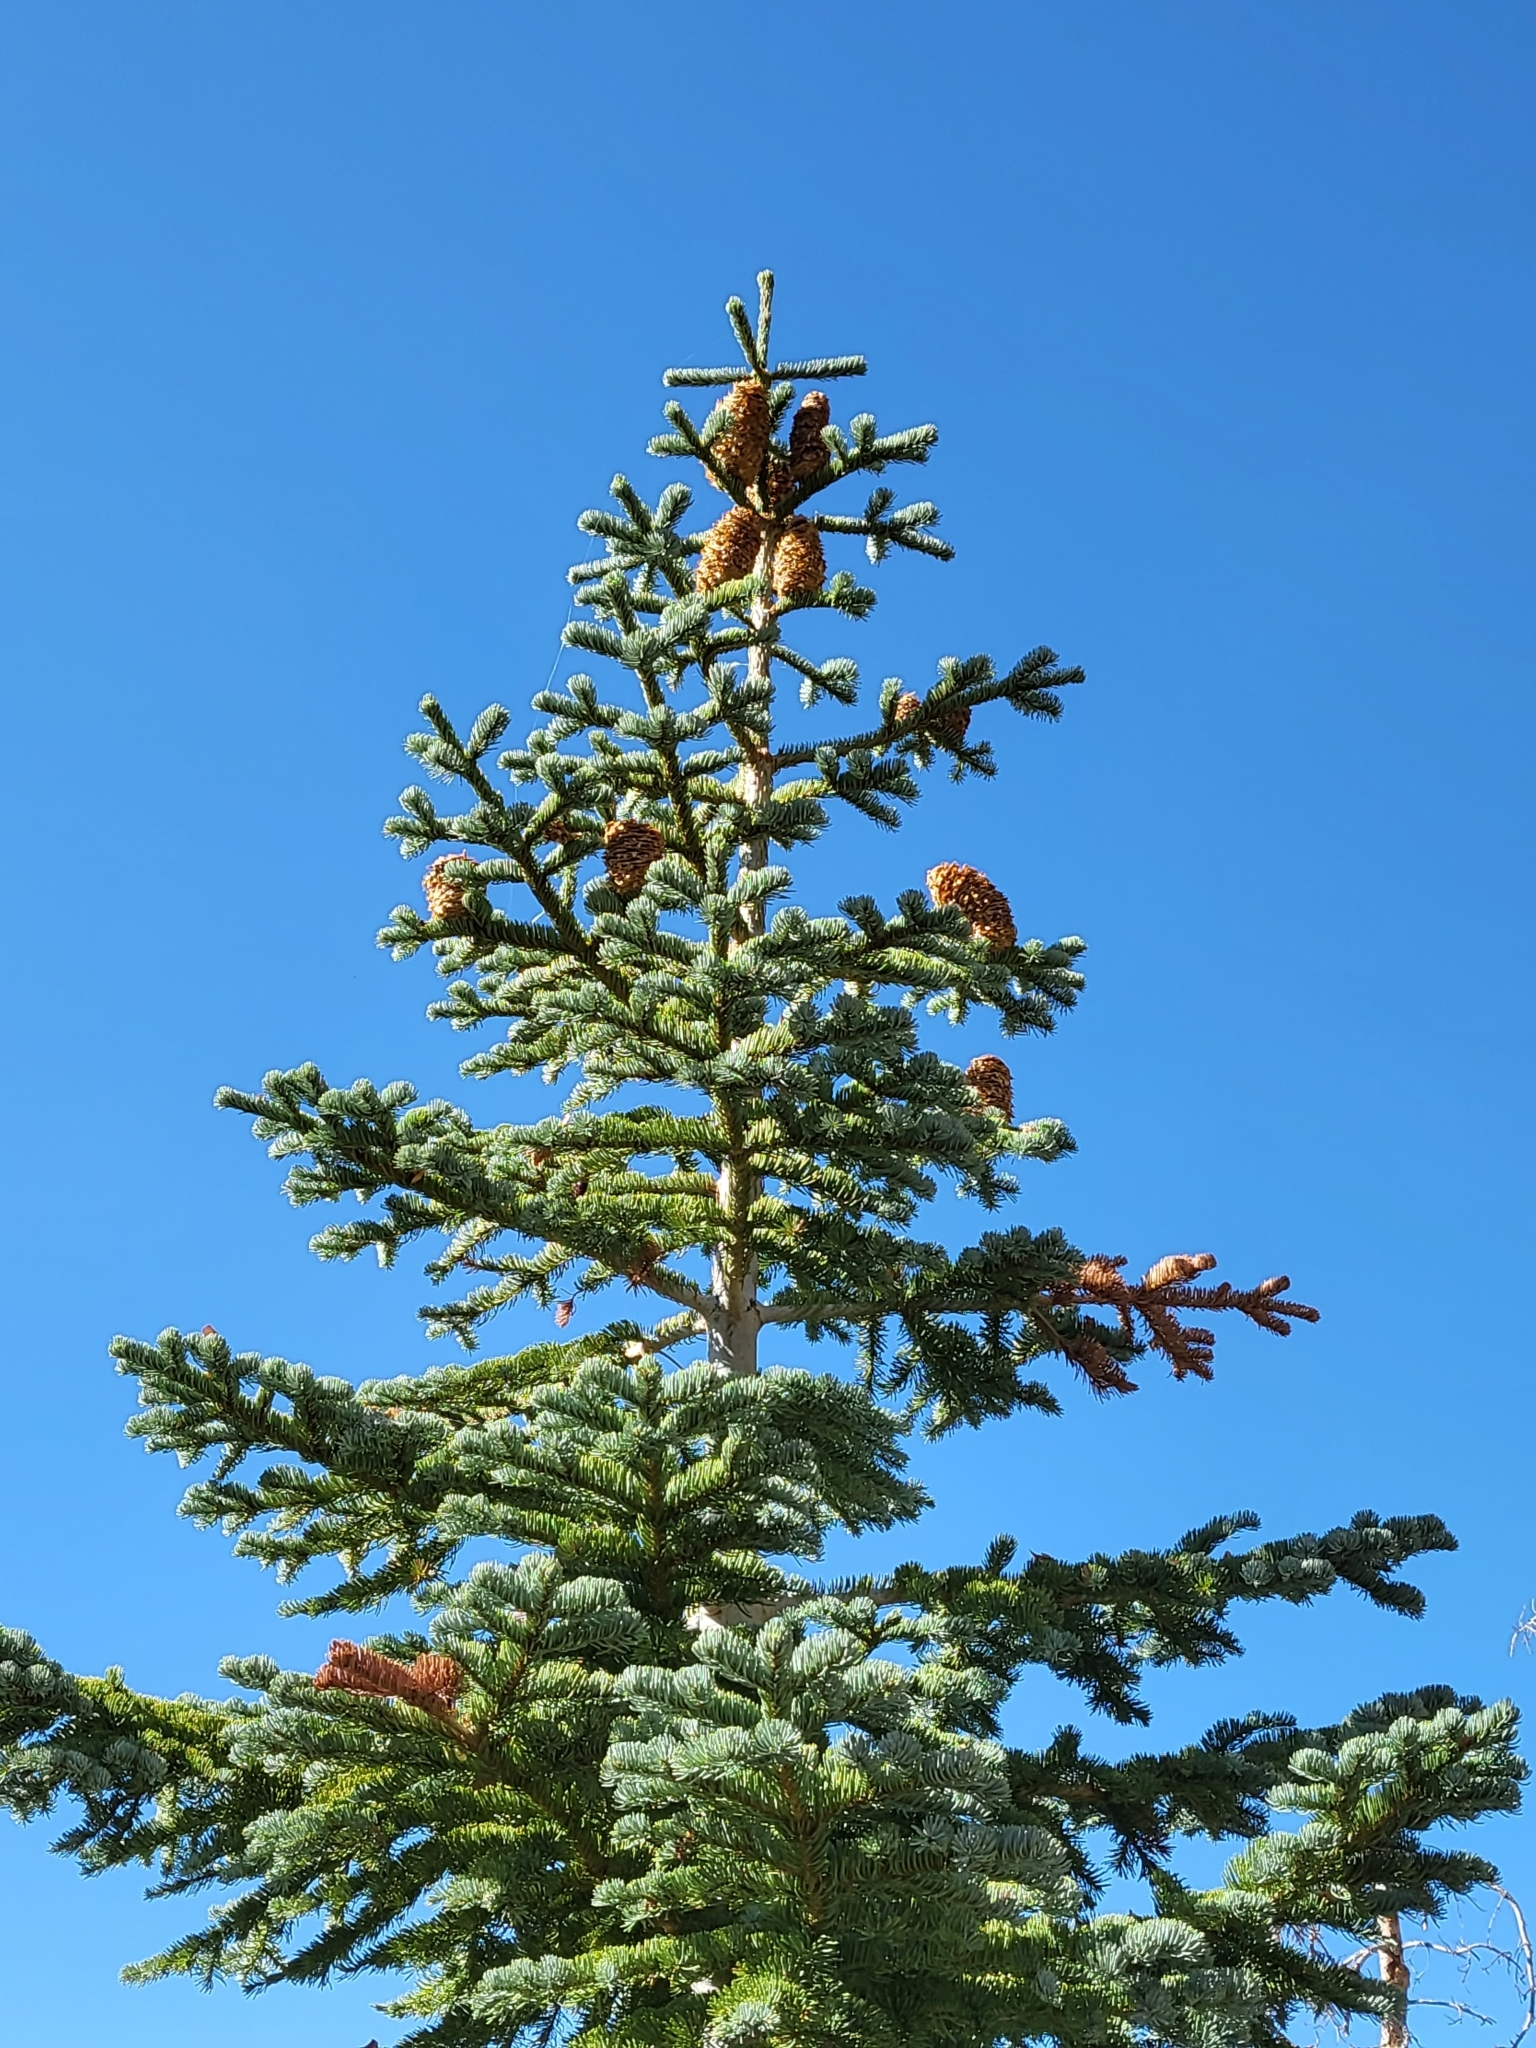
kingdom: Plantae
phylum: Tracheophyta
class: Pinopsida
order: Pinales
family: Pinaceae
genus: Abies
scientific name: Abies magnifica bis
